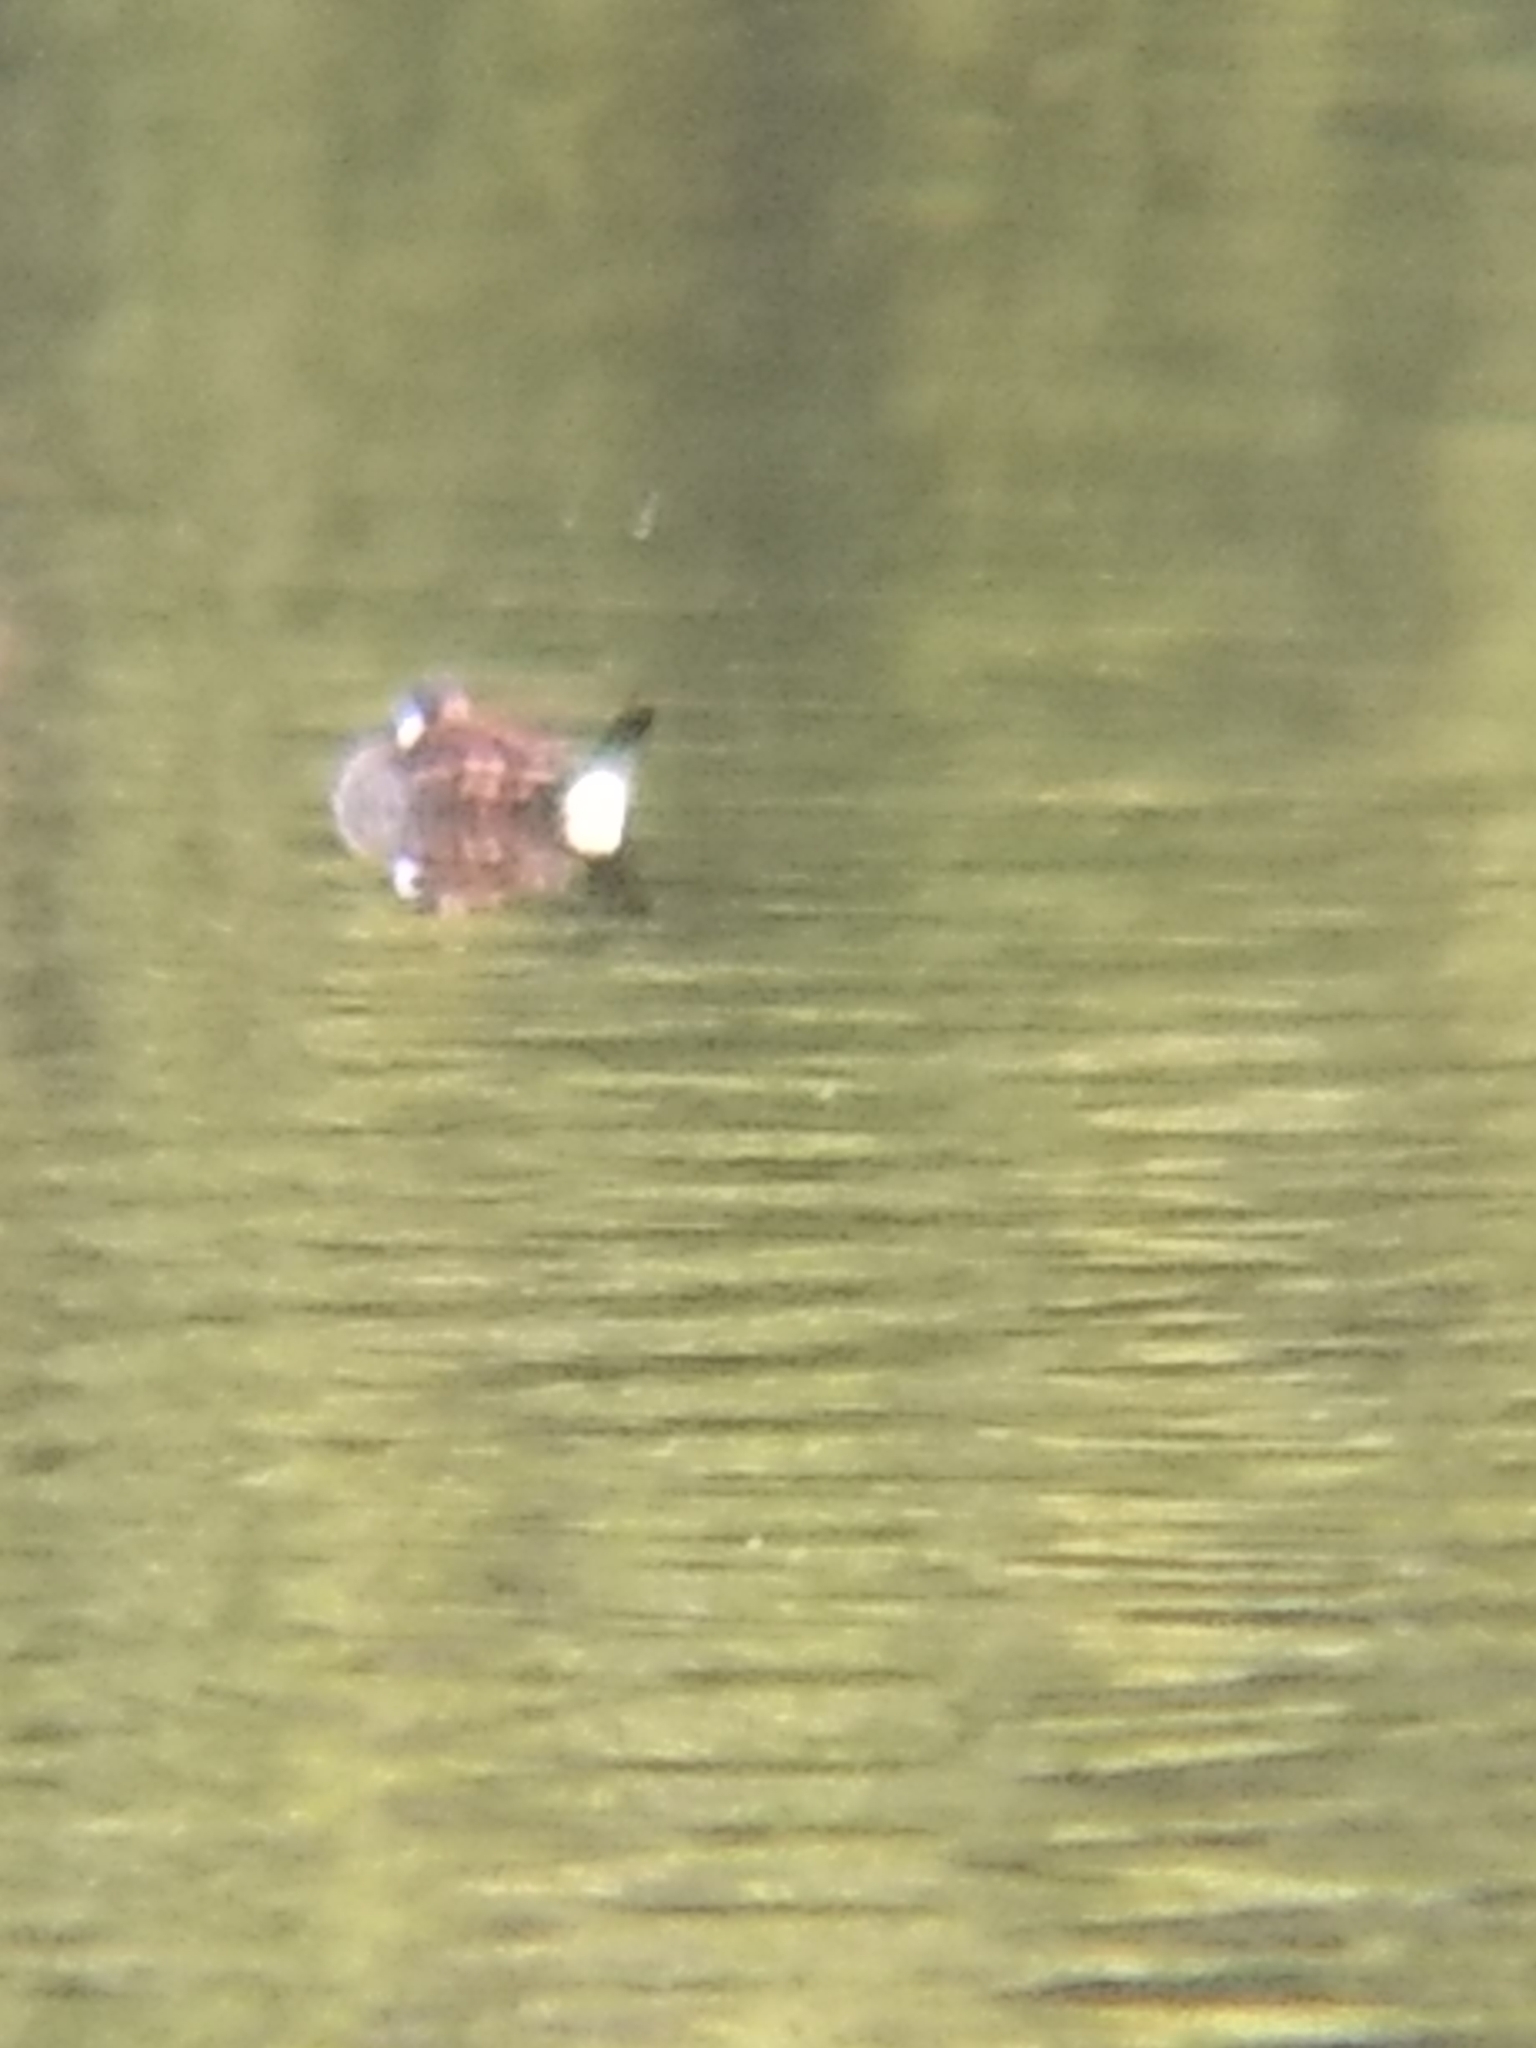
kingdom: Animalia
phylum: Chordata
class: Aves
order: Anseriformes
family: Anatidae
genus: Oxyura
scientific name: Oxyura jamaicensis
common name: Ruddy duck
